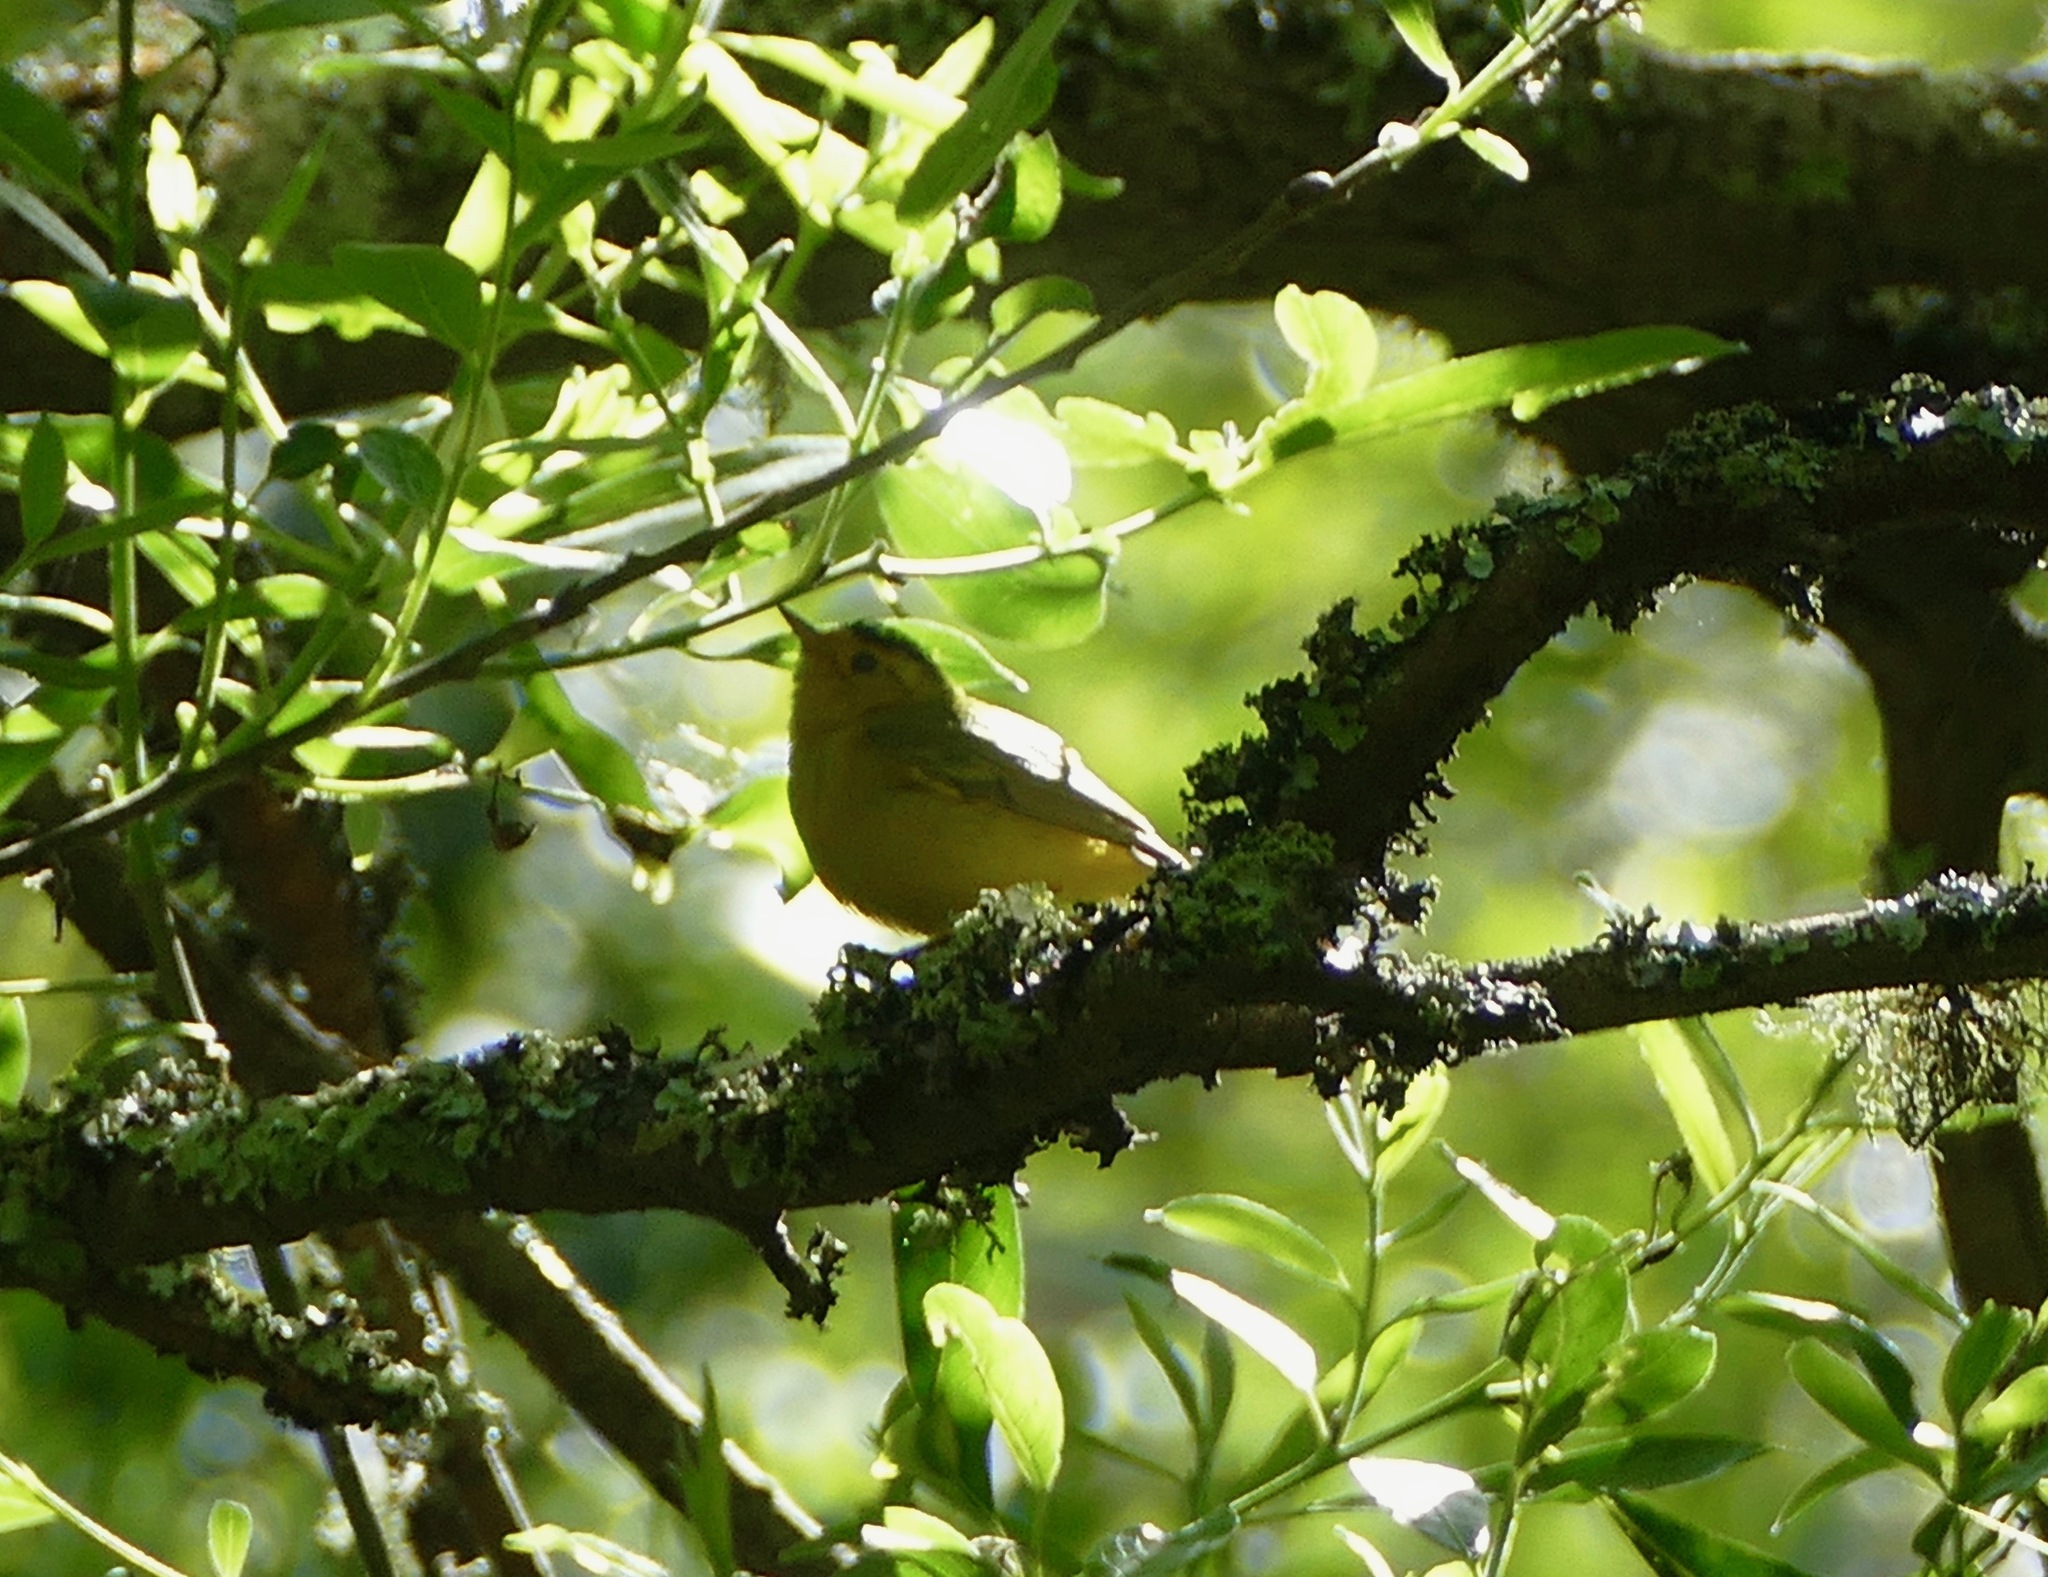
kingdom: Animalia
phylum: Chordata
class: Aves
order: Passeriformes
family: Parulidae
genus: Cardellina
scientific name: Cardellina pusilla
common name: Wilson's warbler
